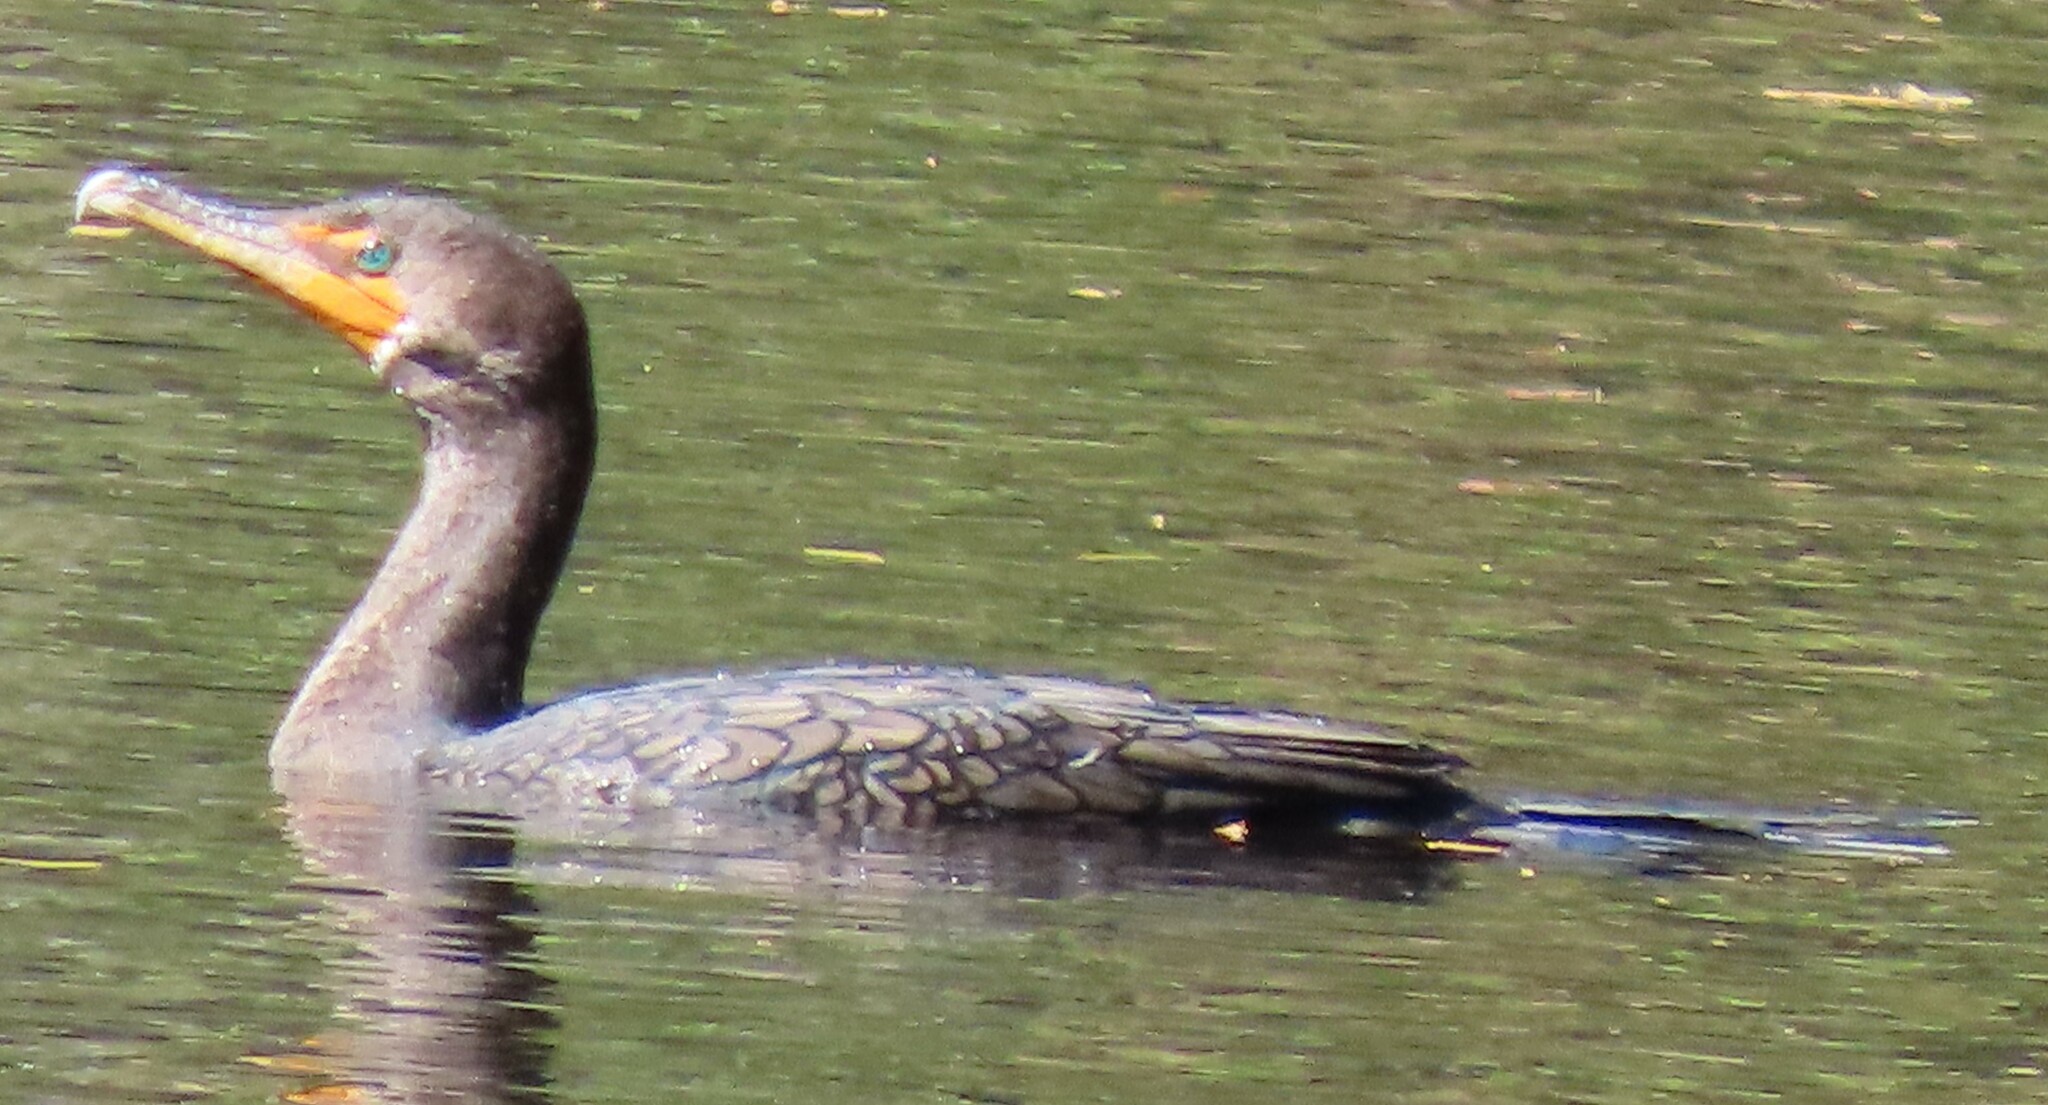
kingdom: Animalia
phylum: Chordata
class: Aves
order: Suliformes
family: Phalacrocoracidae
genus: Phalacrocorax
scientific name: Phalacrocorax auritus
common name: Double-crested cormorant
